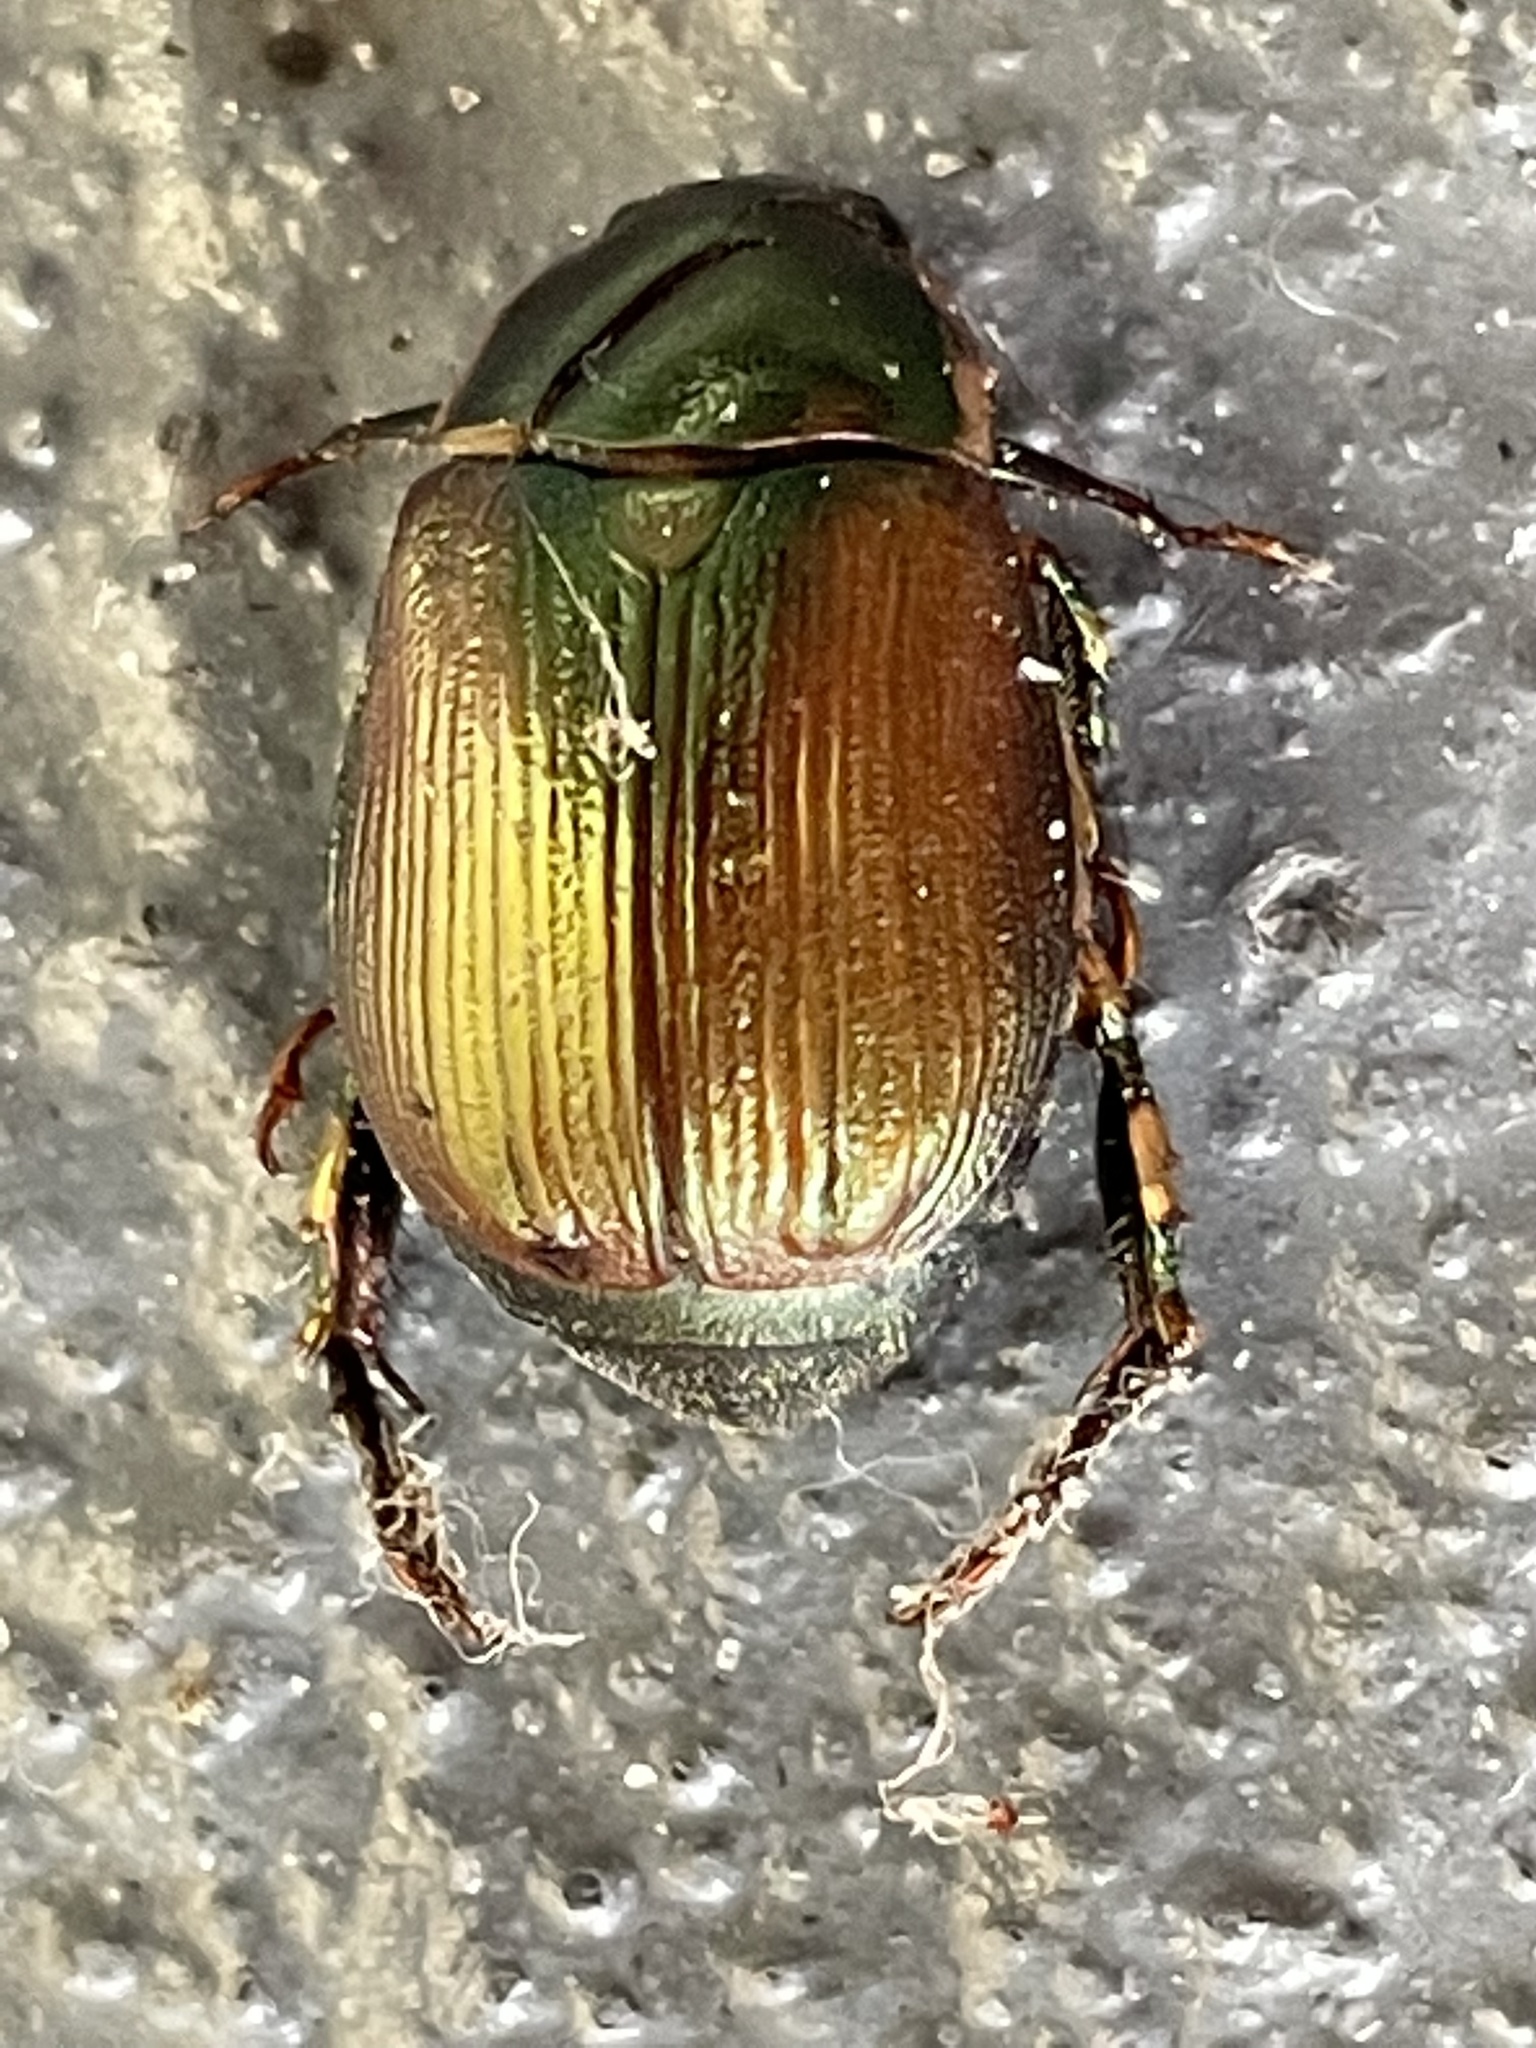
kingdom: Animalia
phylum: Arthropoda
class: Insecta
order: Coleoptera
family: Scarabaeidae
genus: Callistethus
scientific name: Callistethus marginatus
